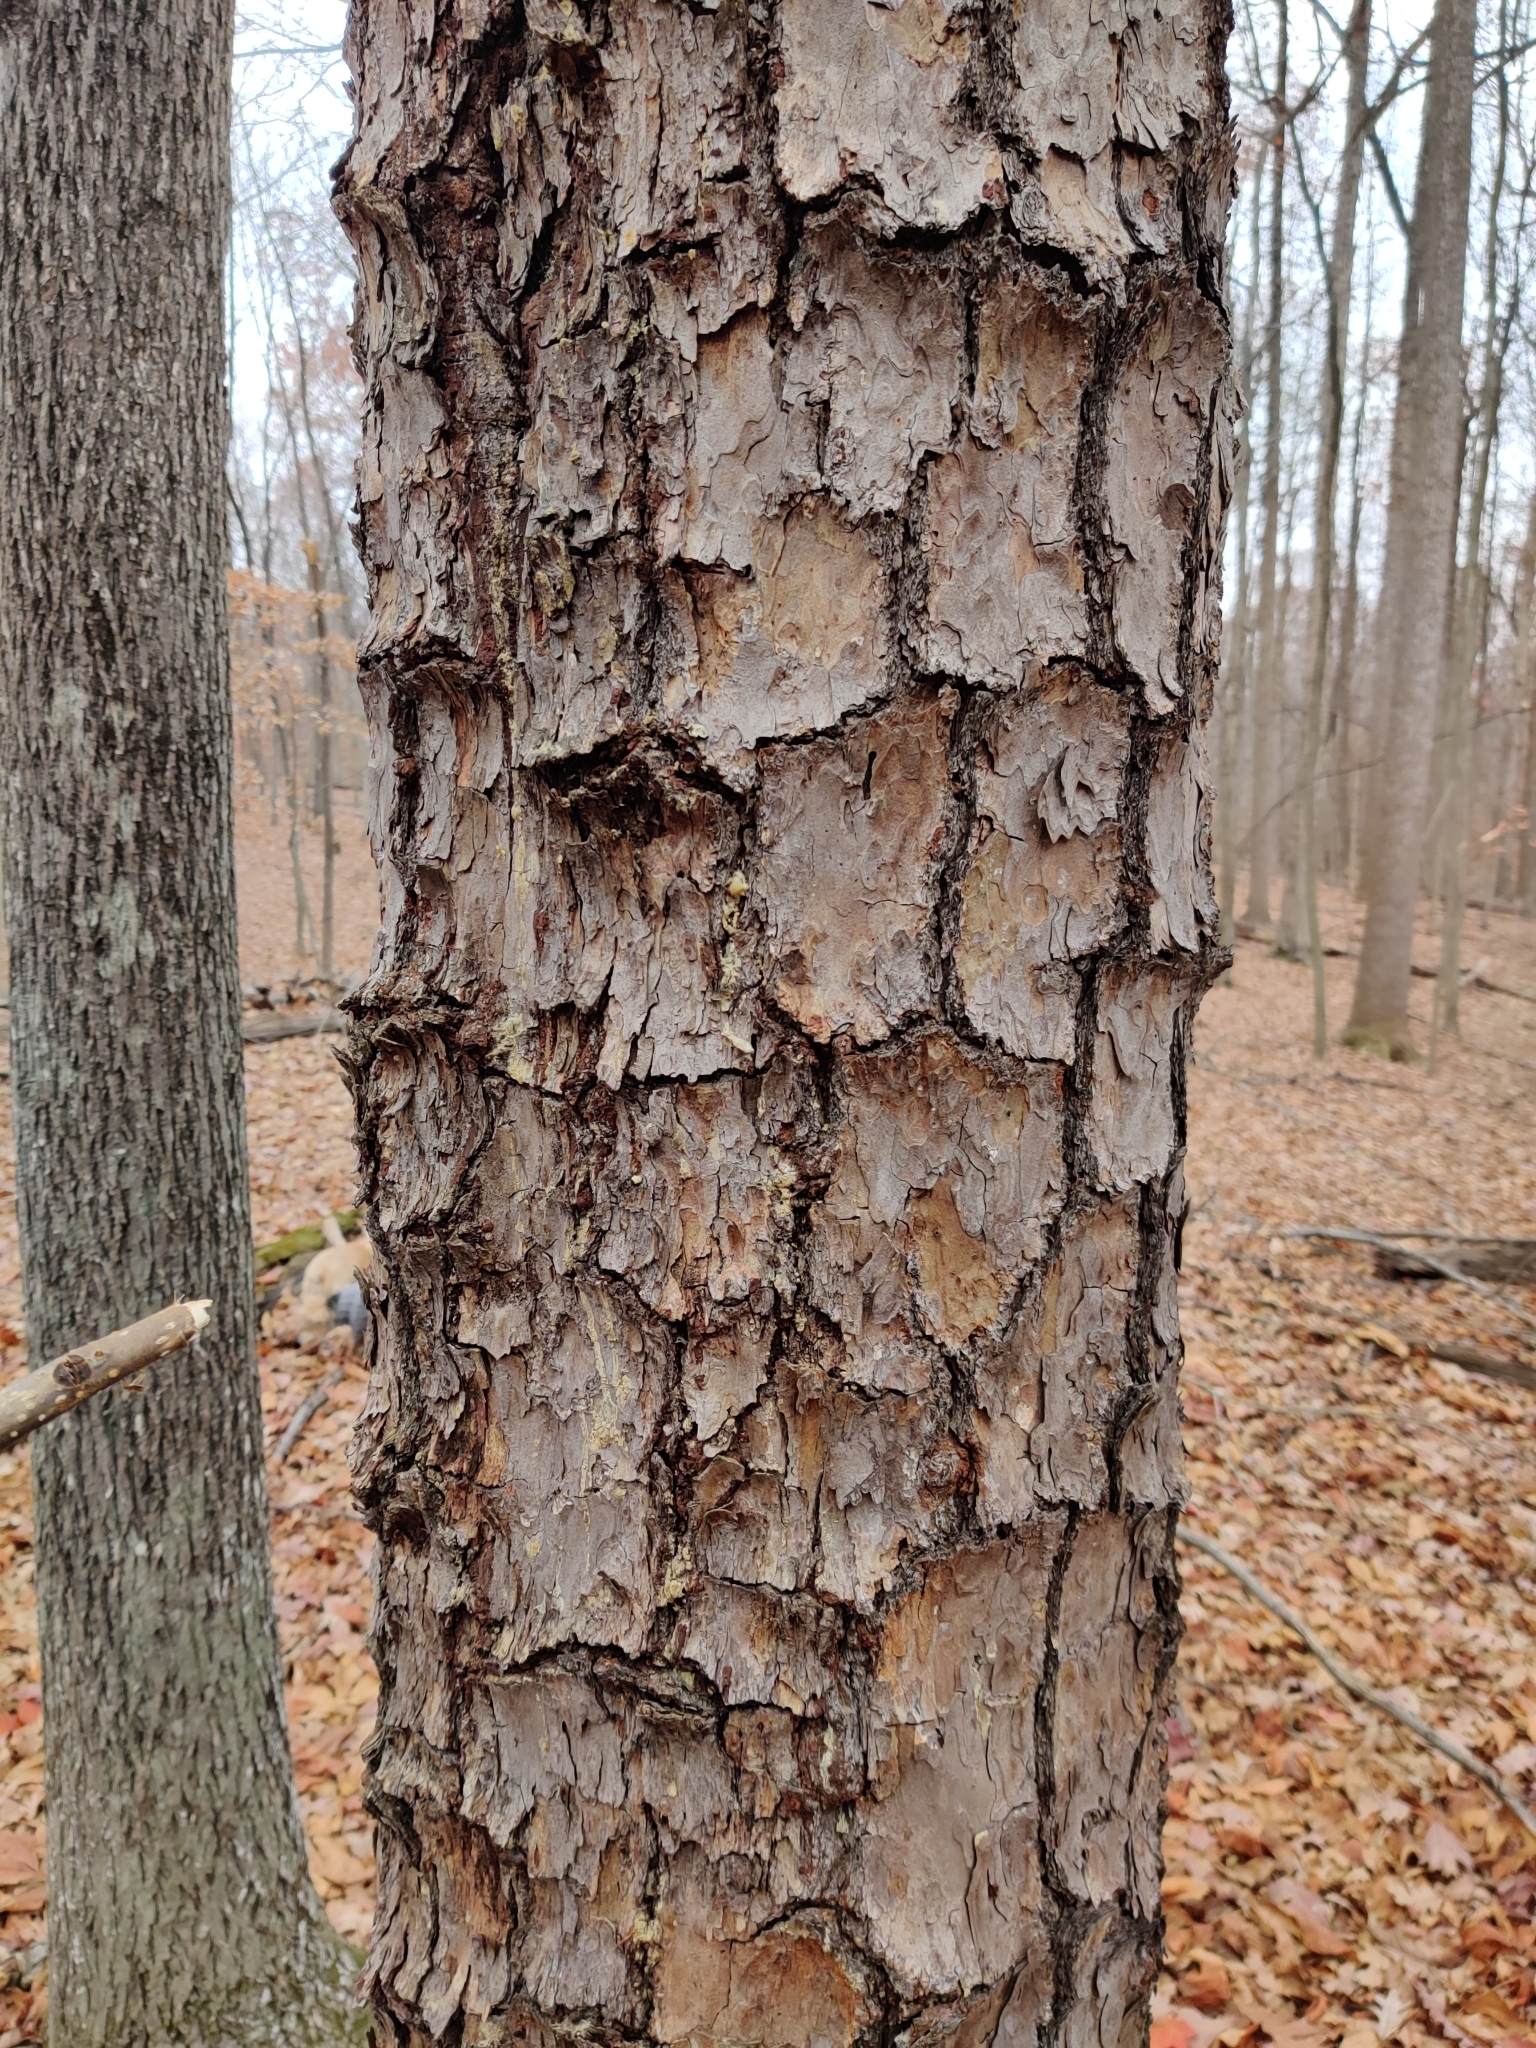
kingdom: Plantae
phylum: Tracheophyta
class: Pinopsida
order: Pinales
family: Pinaceae
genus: Pinus
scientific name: Pinus echinata
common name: Shortleaf pine
